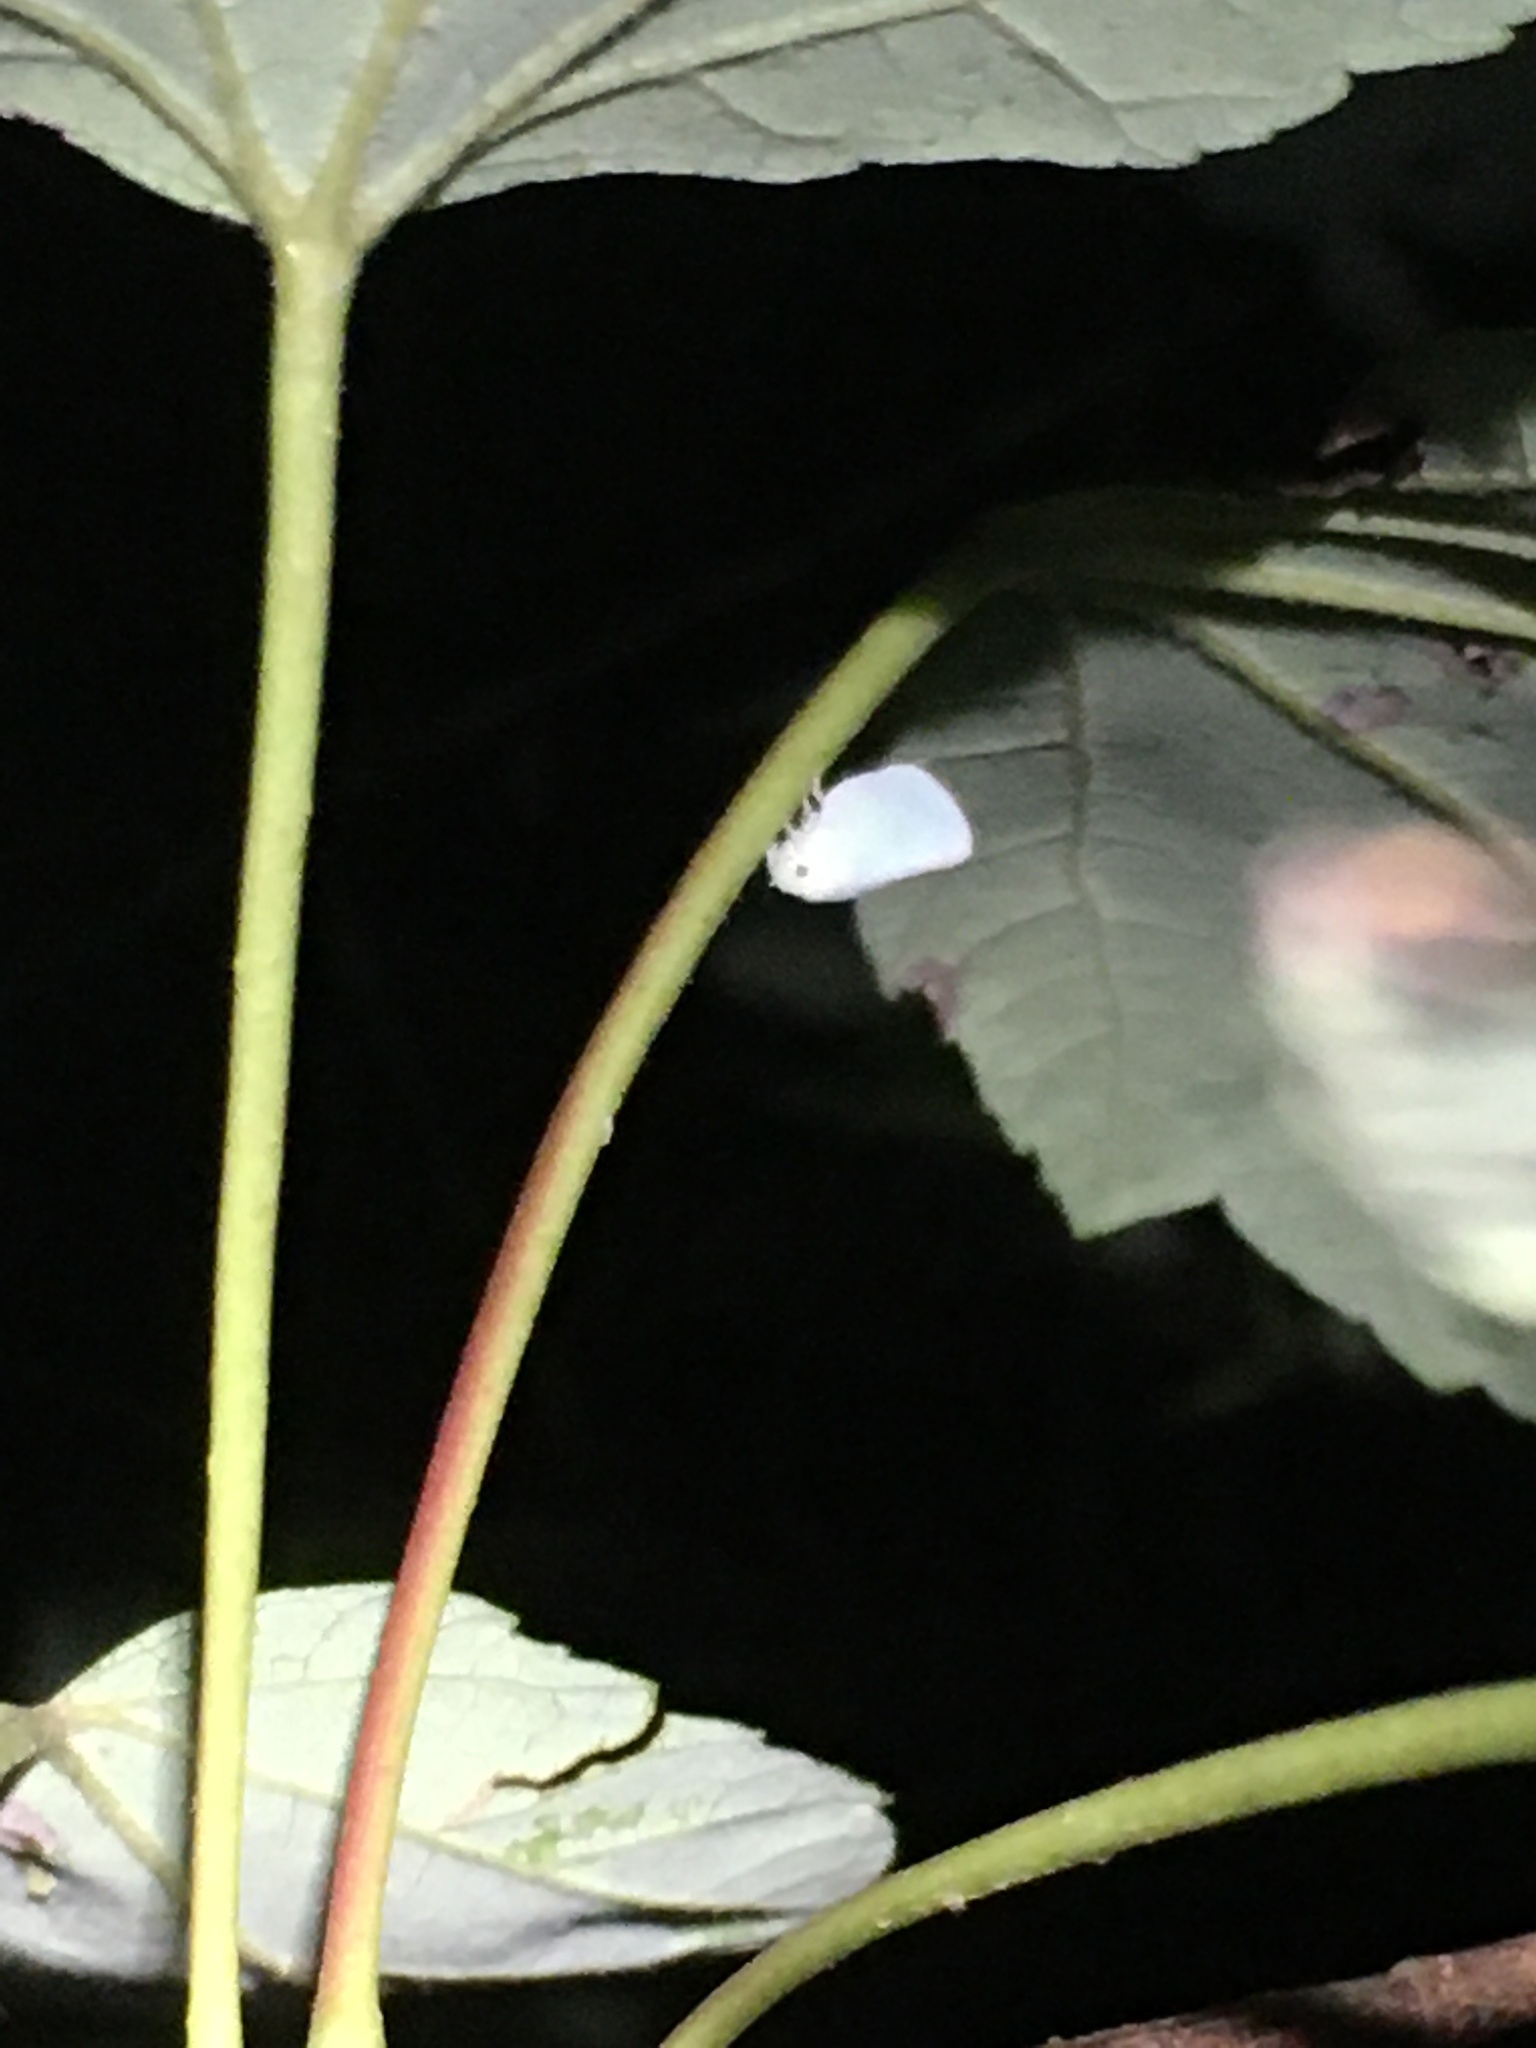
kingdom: Animalia
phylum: Arthropoda
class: Insecta
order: Hemiptera
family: Flatidae
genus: Ormenoides
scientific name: Ormenoides venusta
